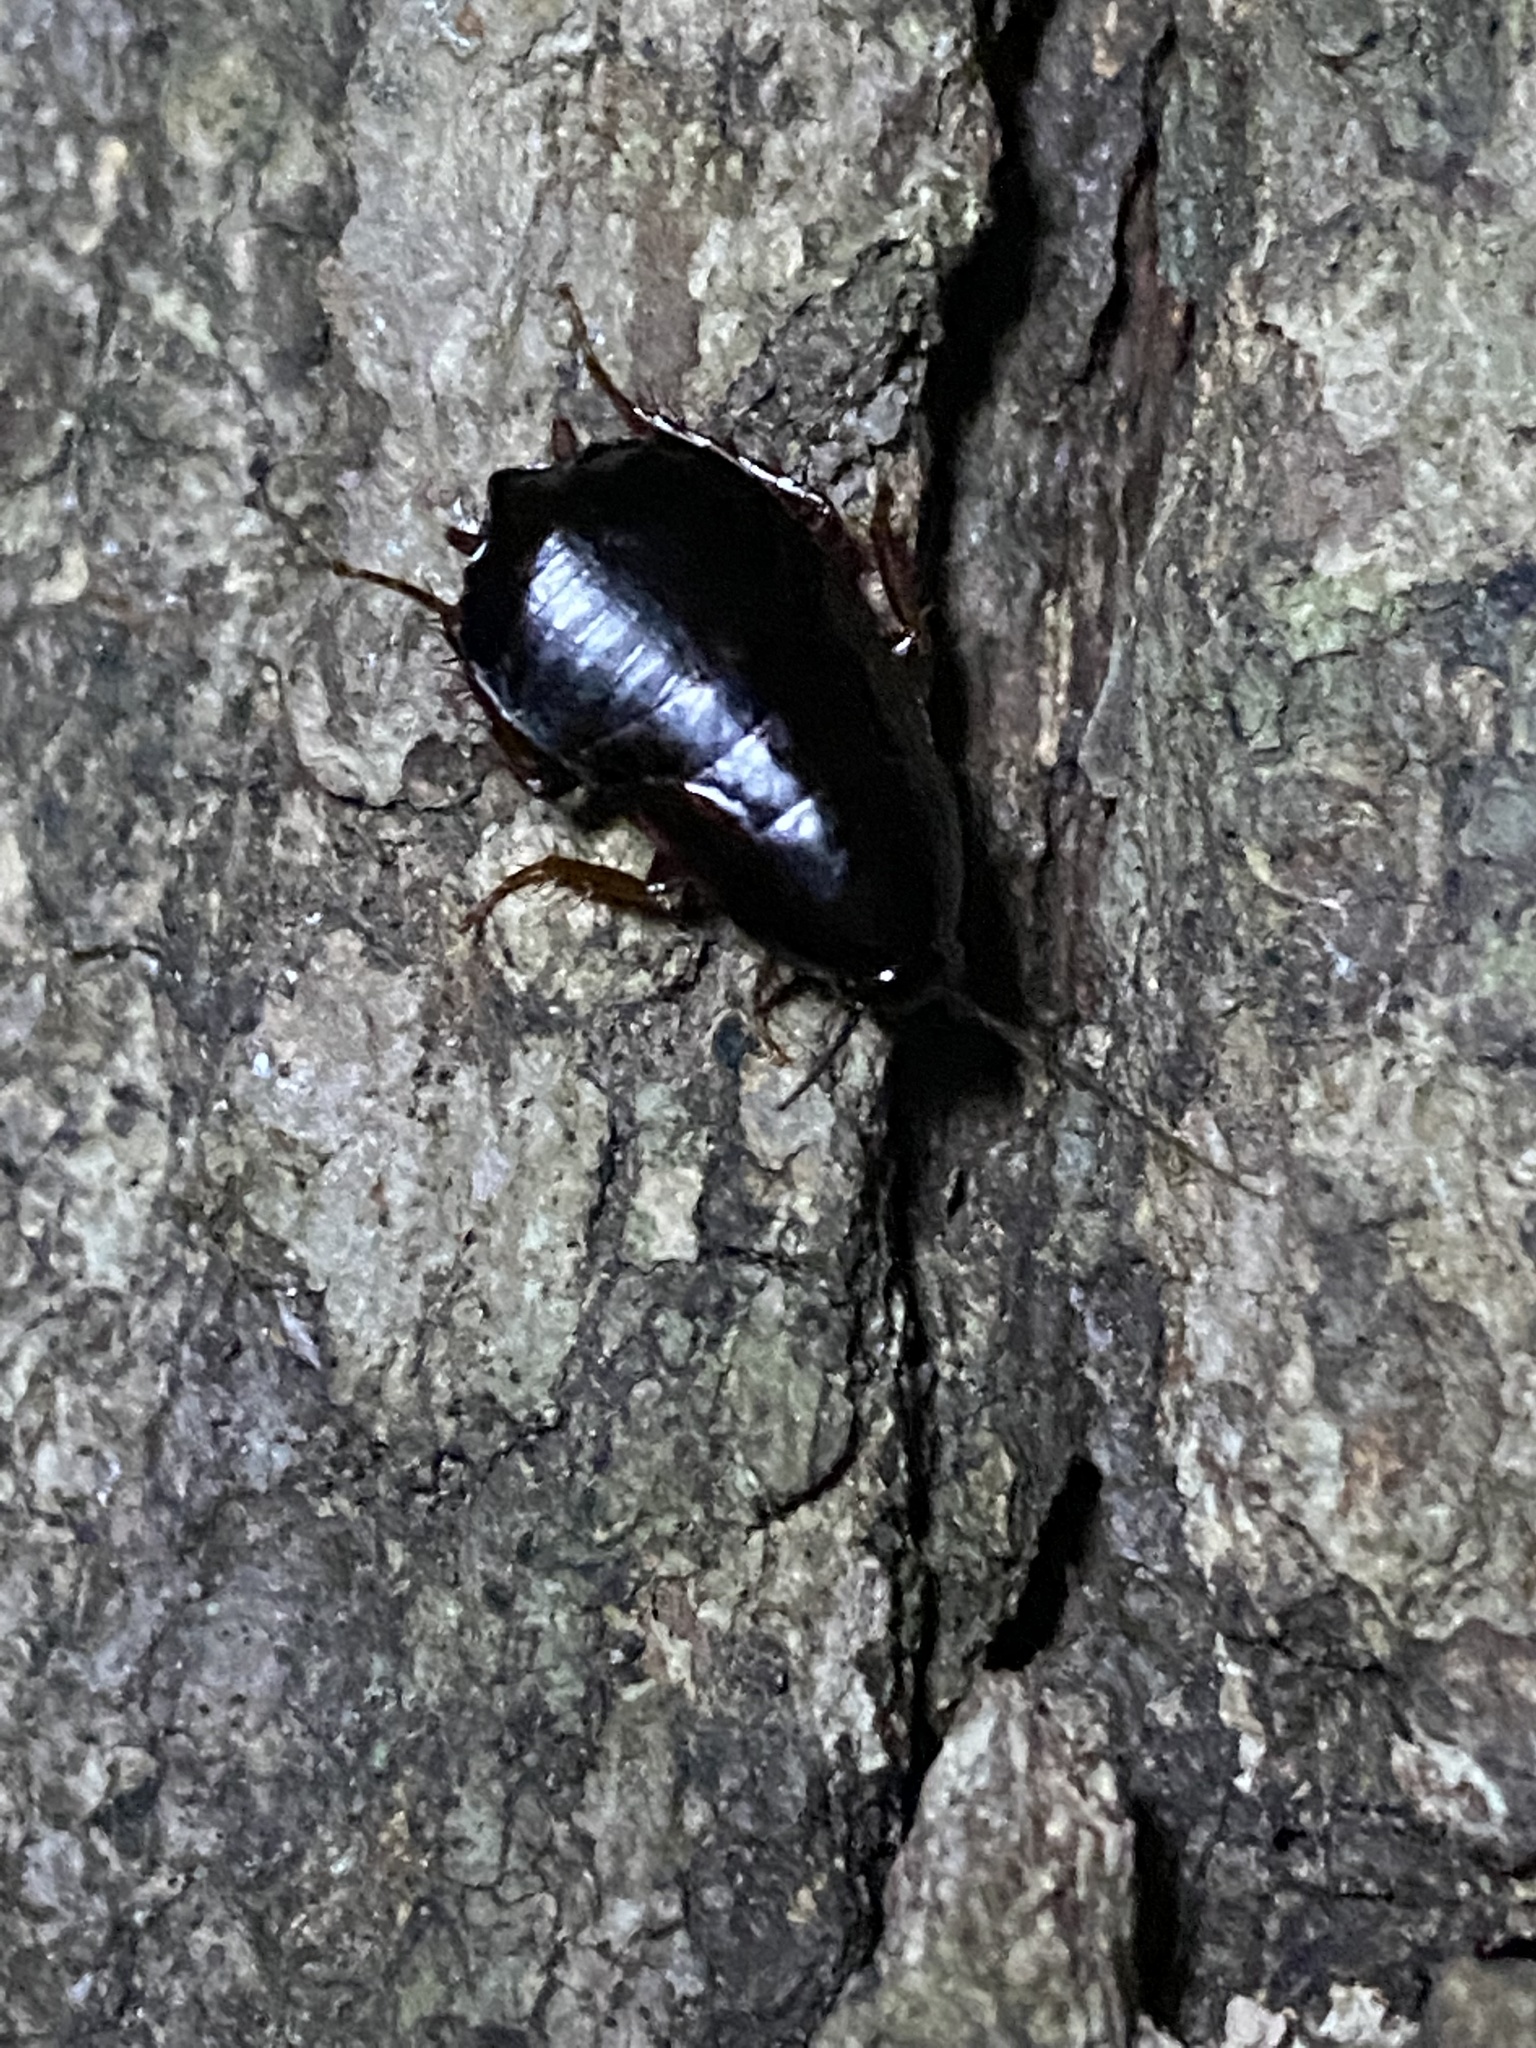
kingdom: Animalia
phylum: Arthropoda
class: Insecta
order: Blattodea
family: Ectobiidae
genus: Parcoblatta
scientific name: Parcoblatta uhleriana
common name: Uhler's wood cockroach
